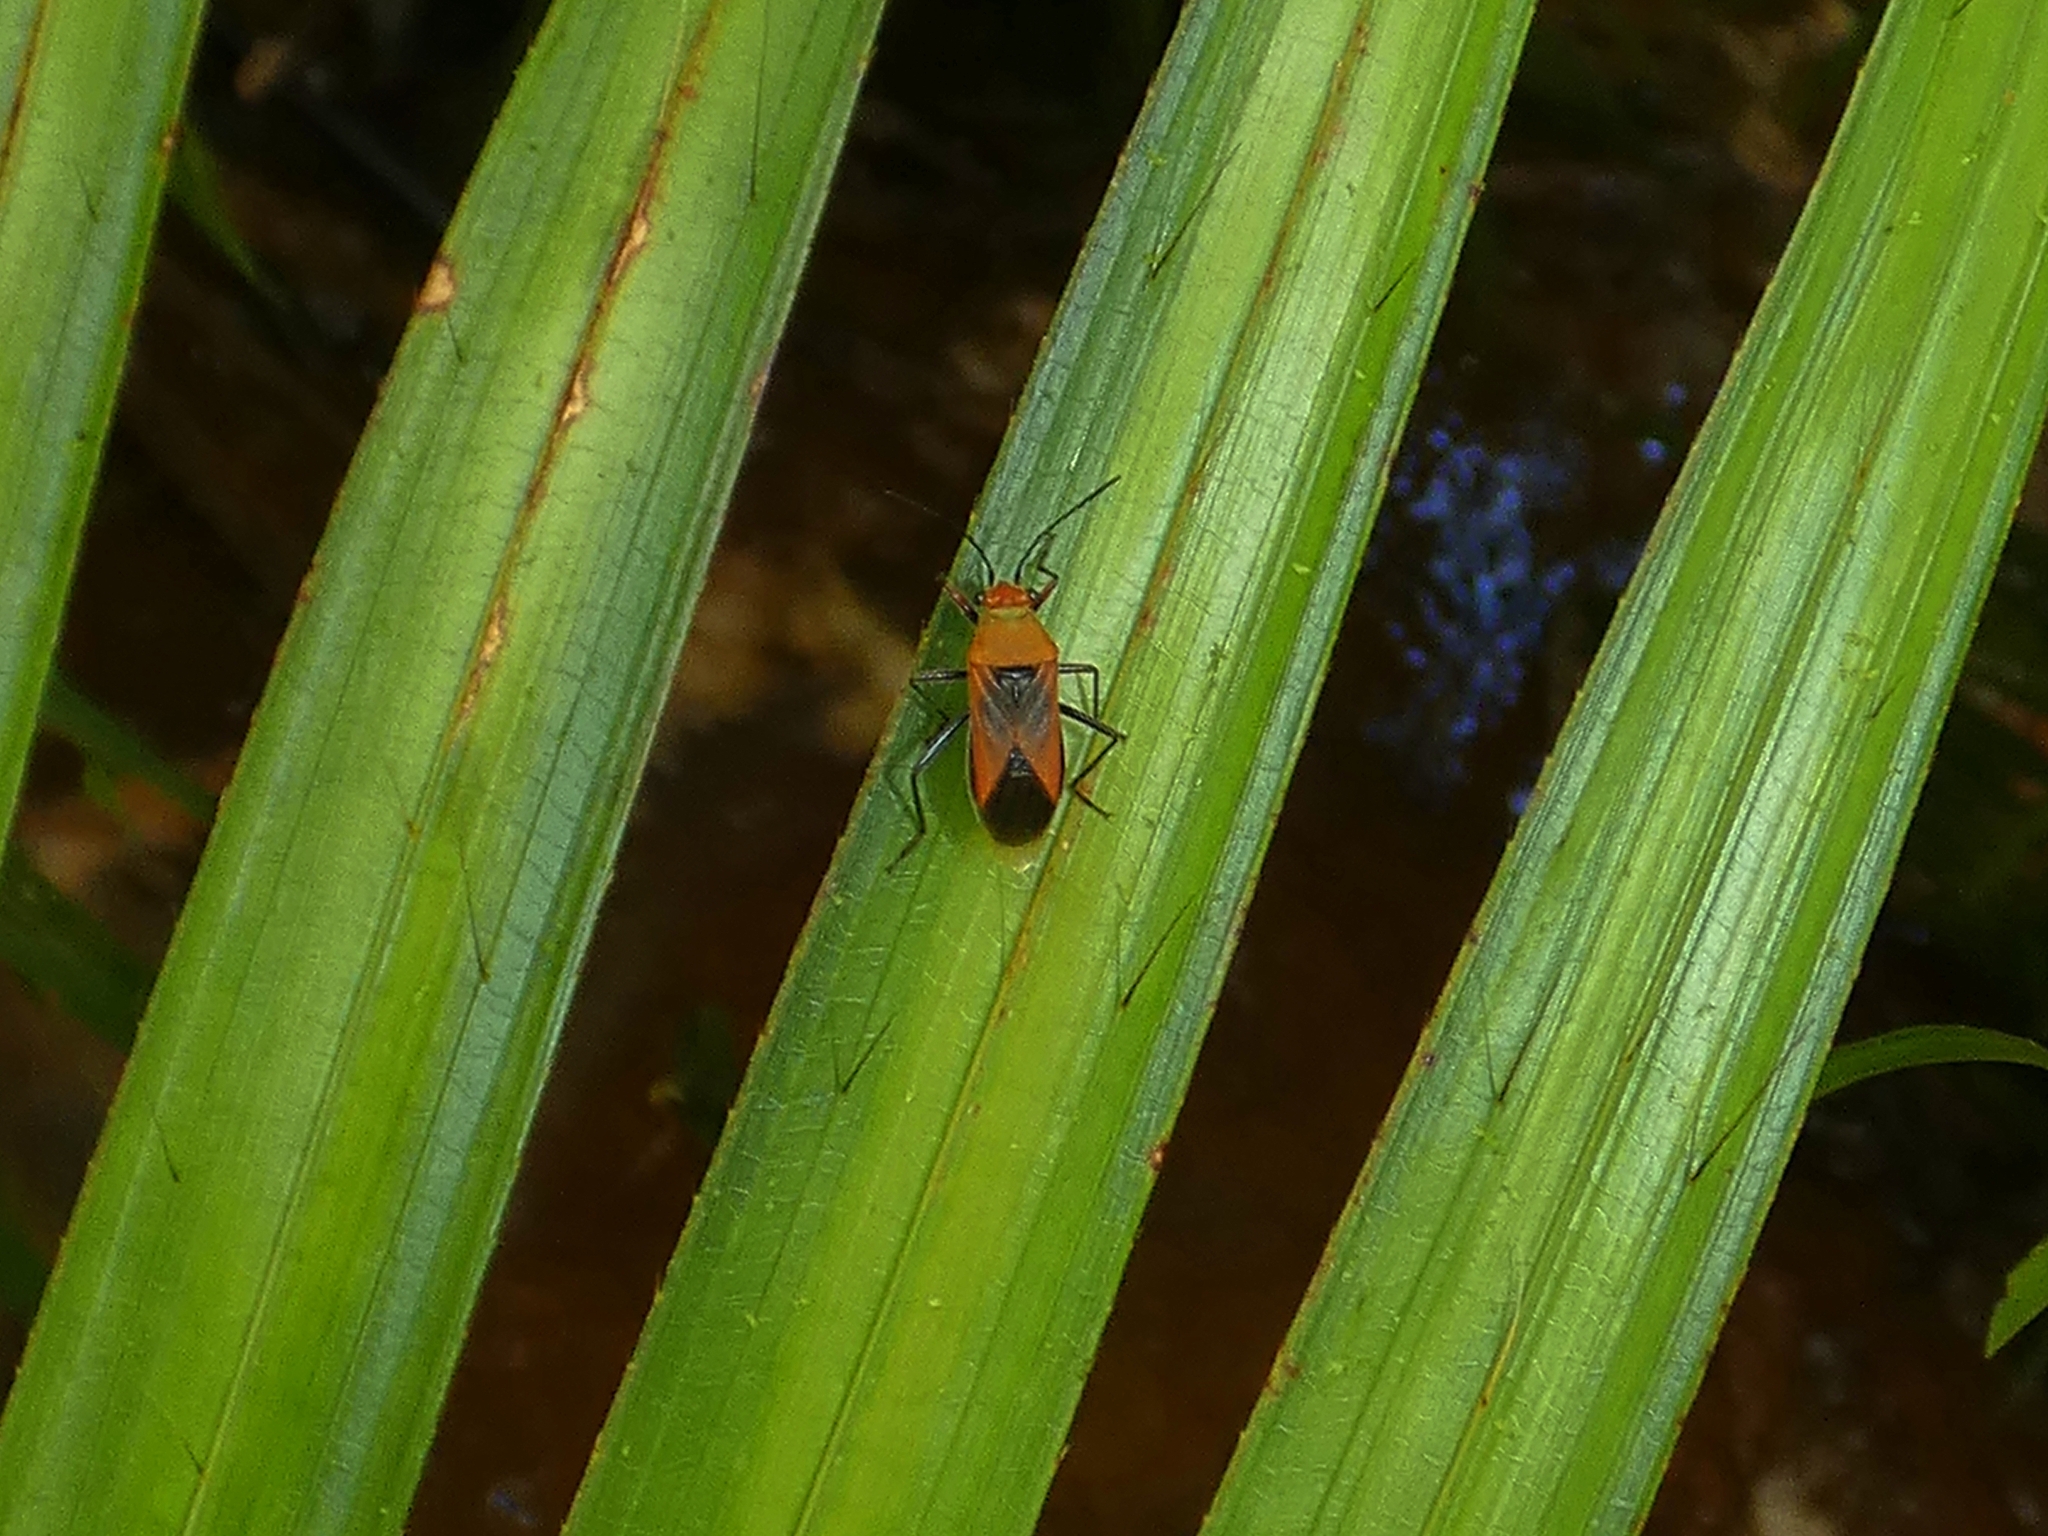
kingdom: Animalia
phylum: Arthropoda
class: Insecta
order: Hemiptera
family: Lygaeidae
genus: Astacops
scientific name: Astacops viridiventris
